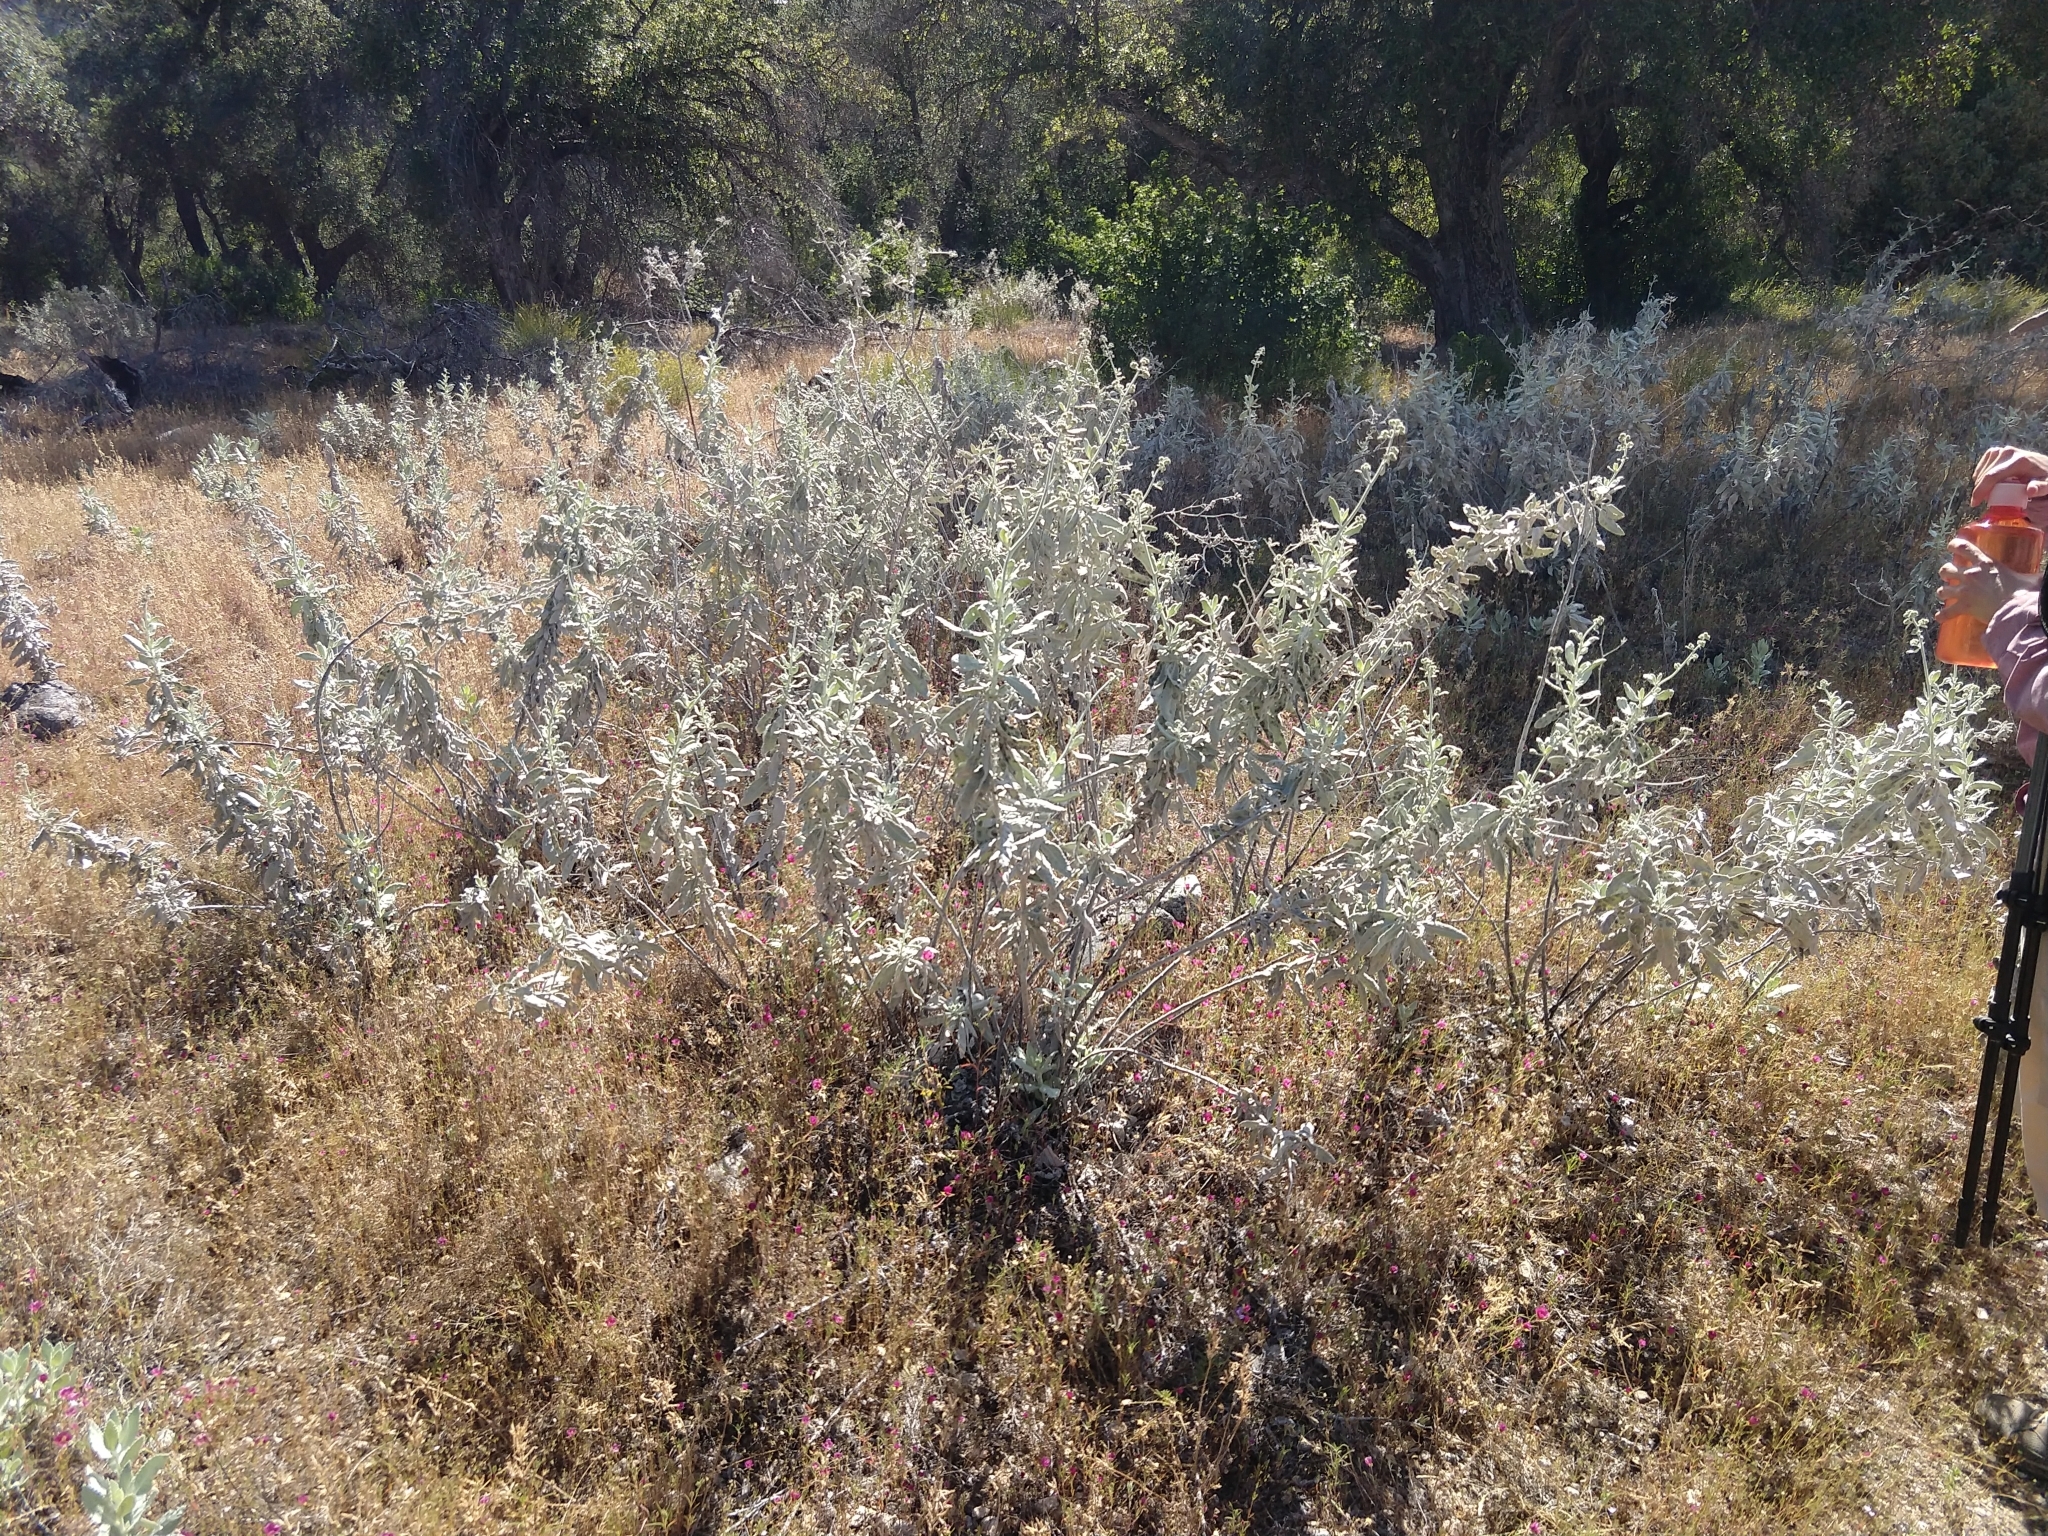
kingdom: Plantae
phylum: Tracheophyta
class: Magnoliopsida
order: Boraginales
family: Namaceae
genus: Eriodictyon
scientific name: Eriodictyon tomentosum
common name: Woolly yerba-santa
